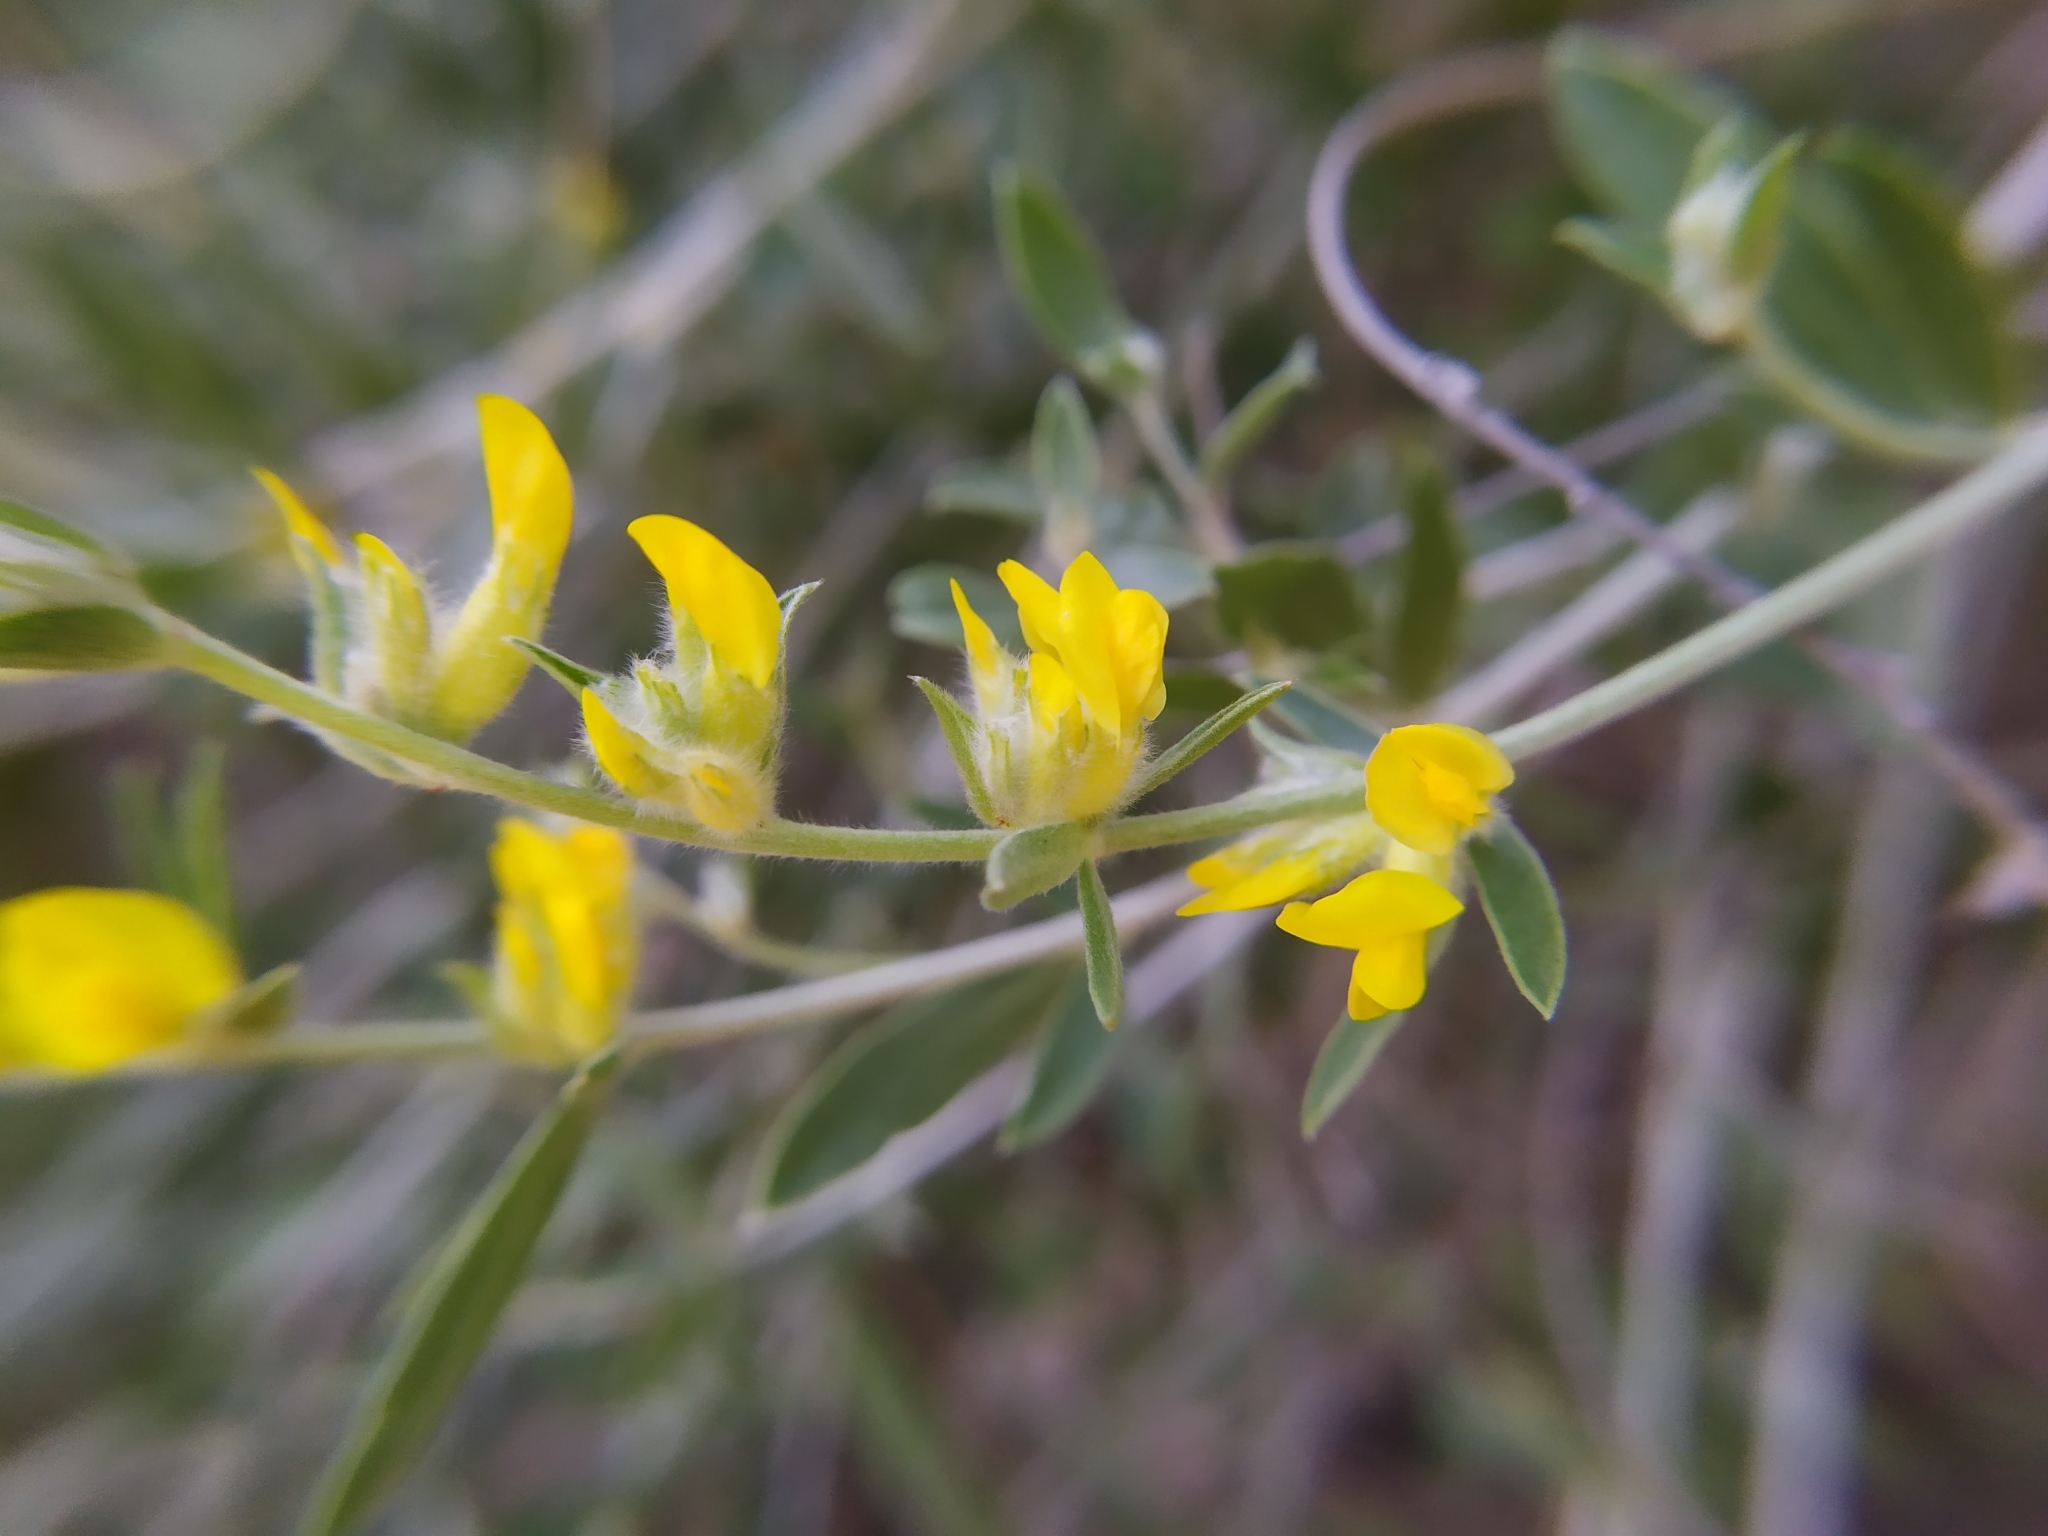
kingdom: Plantae
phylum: Tracheophyta
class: Magnoliopsida
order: Fabales
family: Fabaceae
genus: Anthyllis
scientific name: Anthyllis cytisoides
